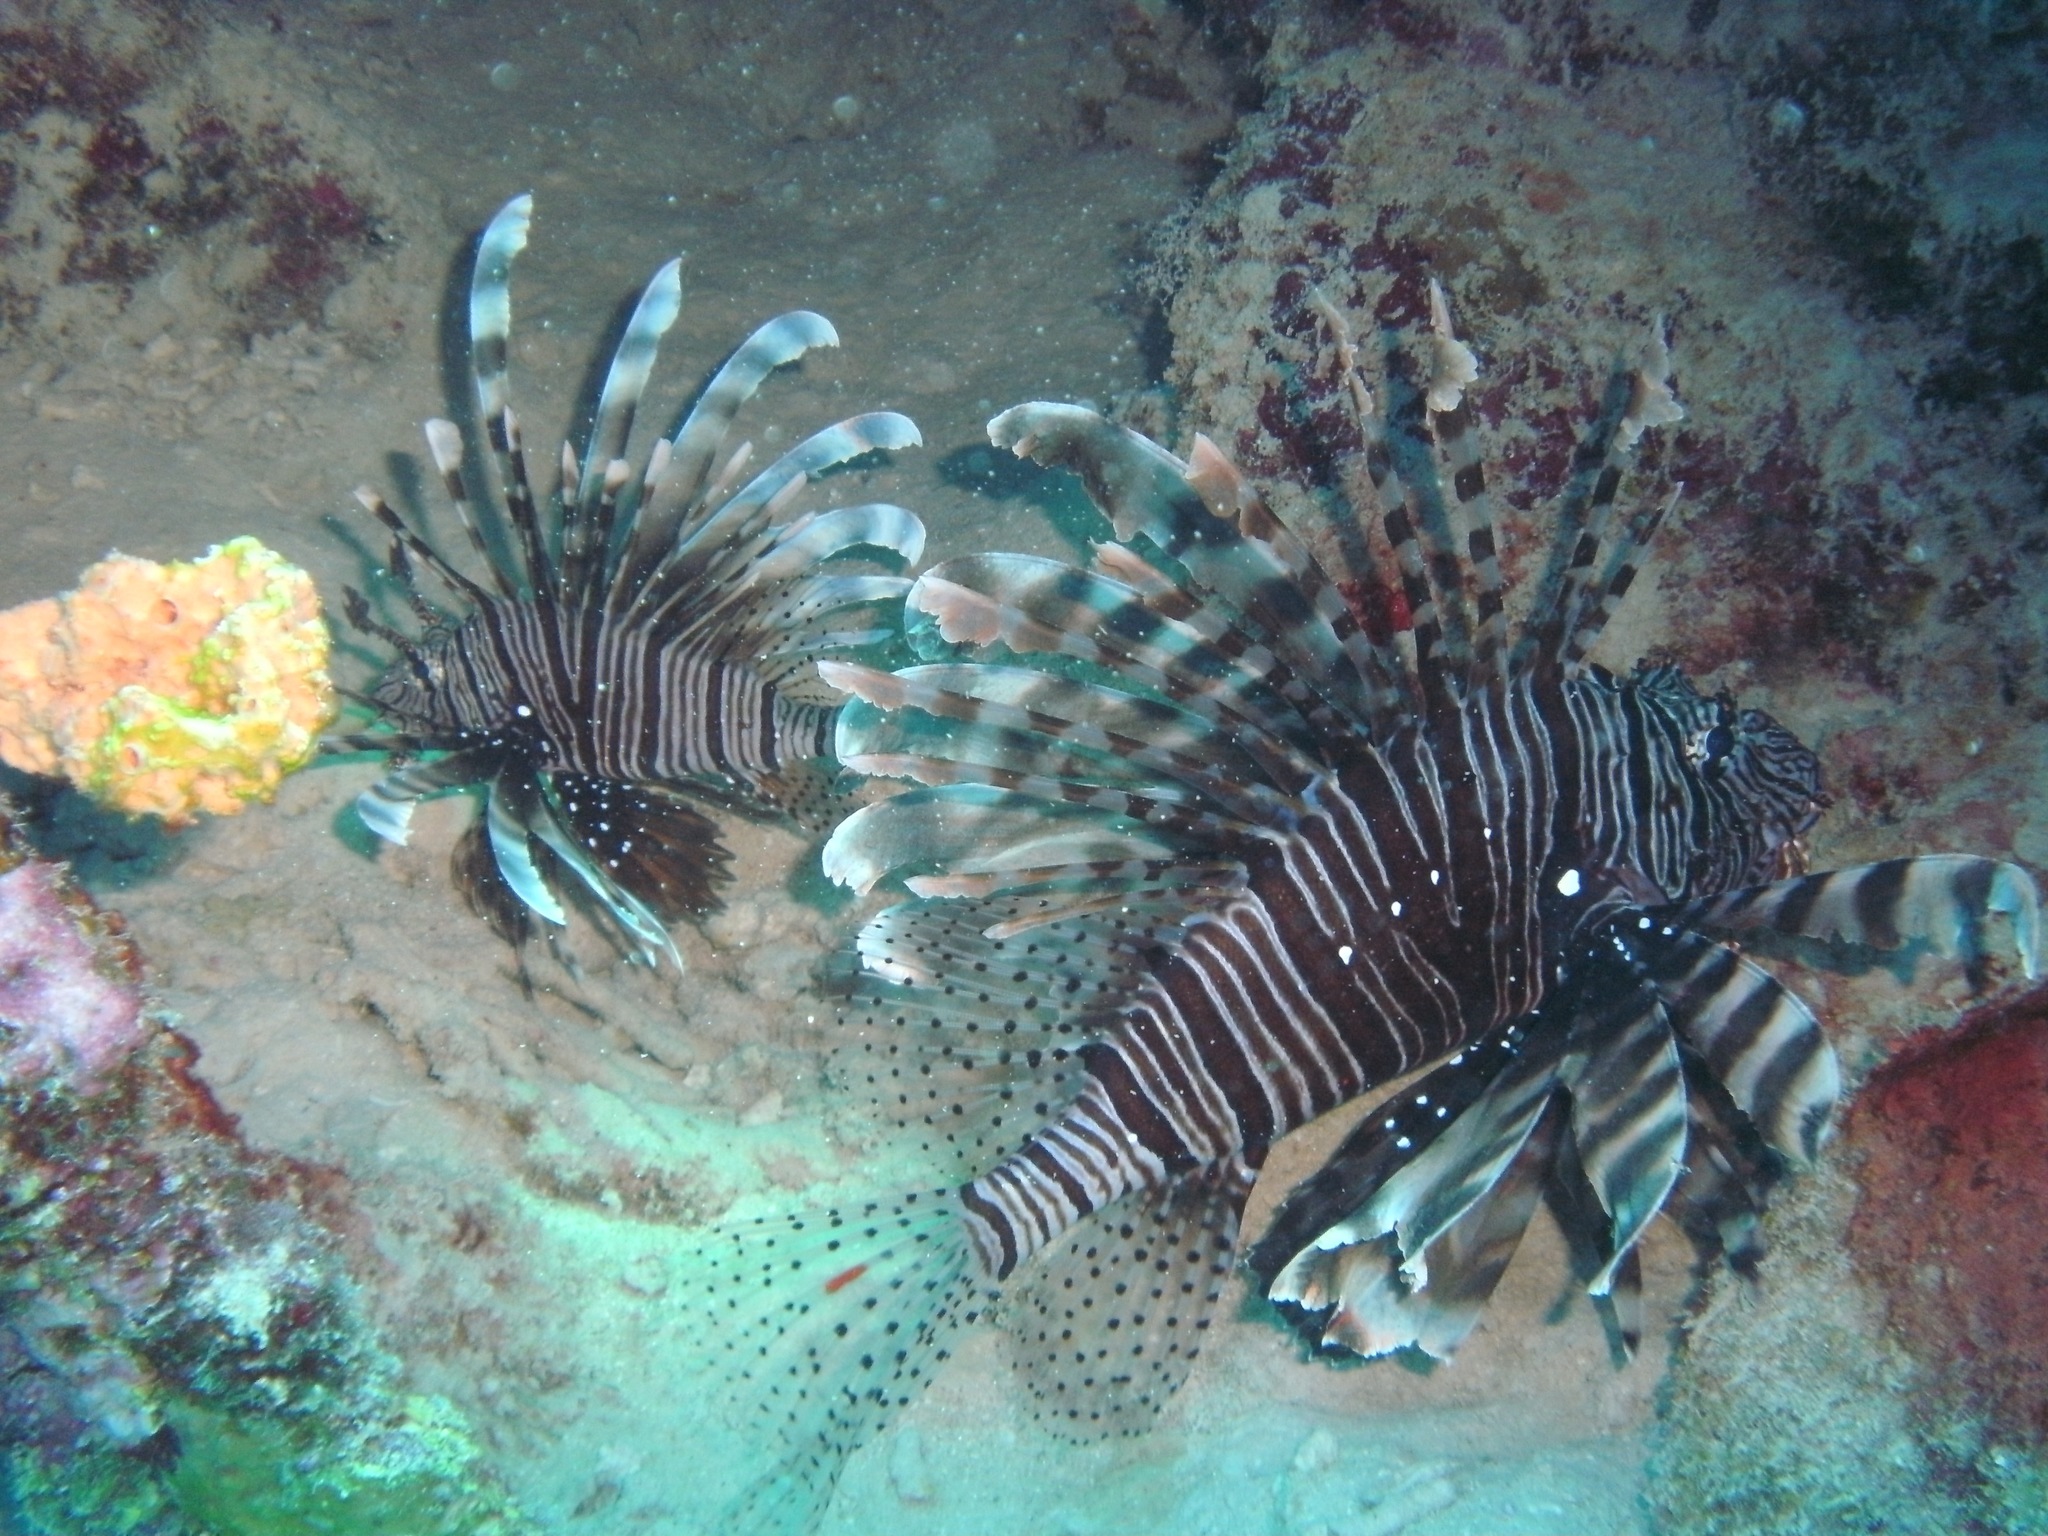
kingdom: Animalia
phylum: Chordata
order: Scorpaeniformes
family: Scorpaenidae
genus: Pterois
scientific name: Pterois miles
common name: Devil firefish
